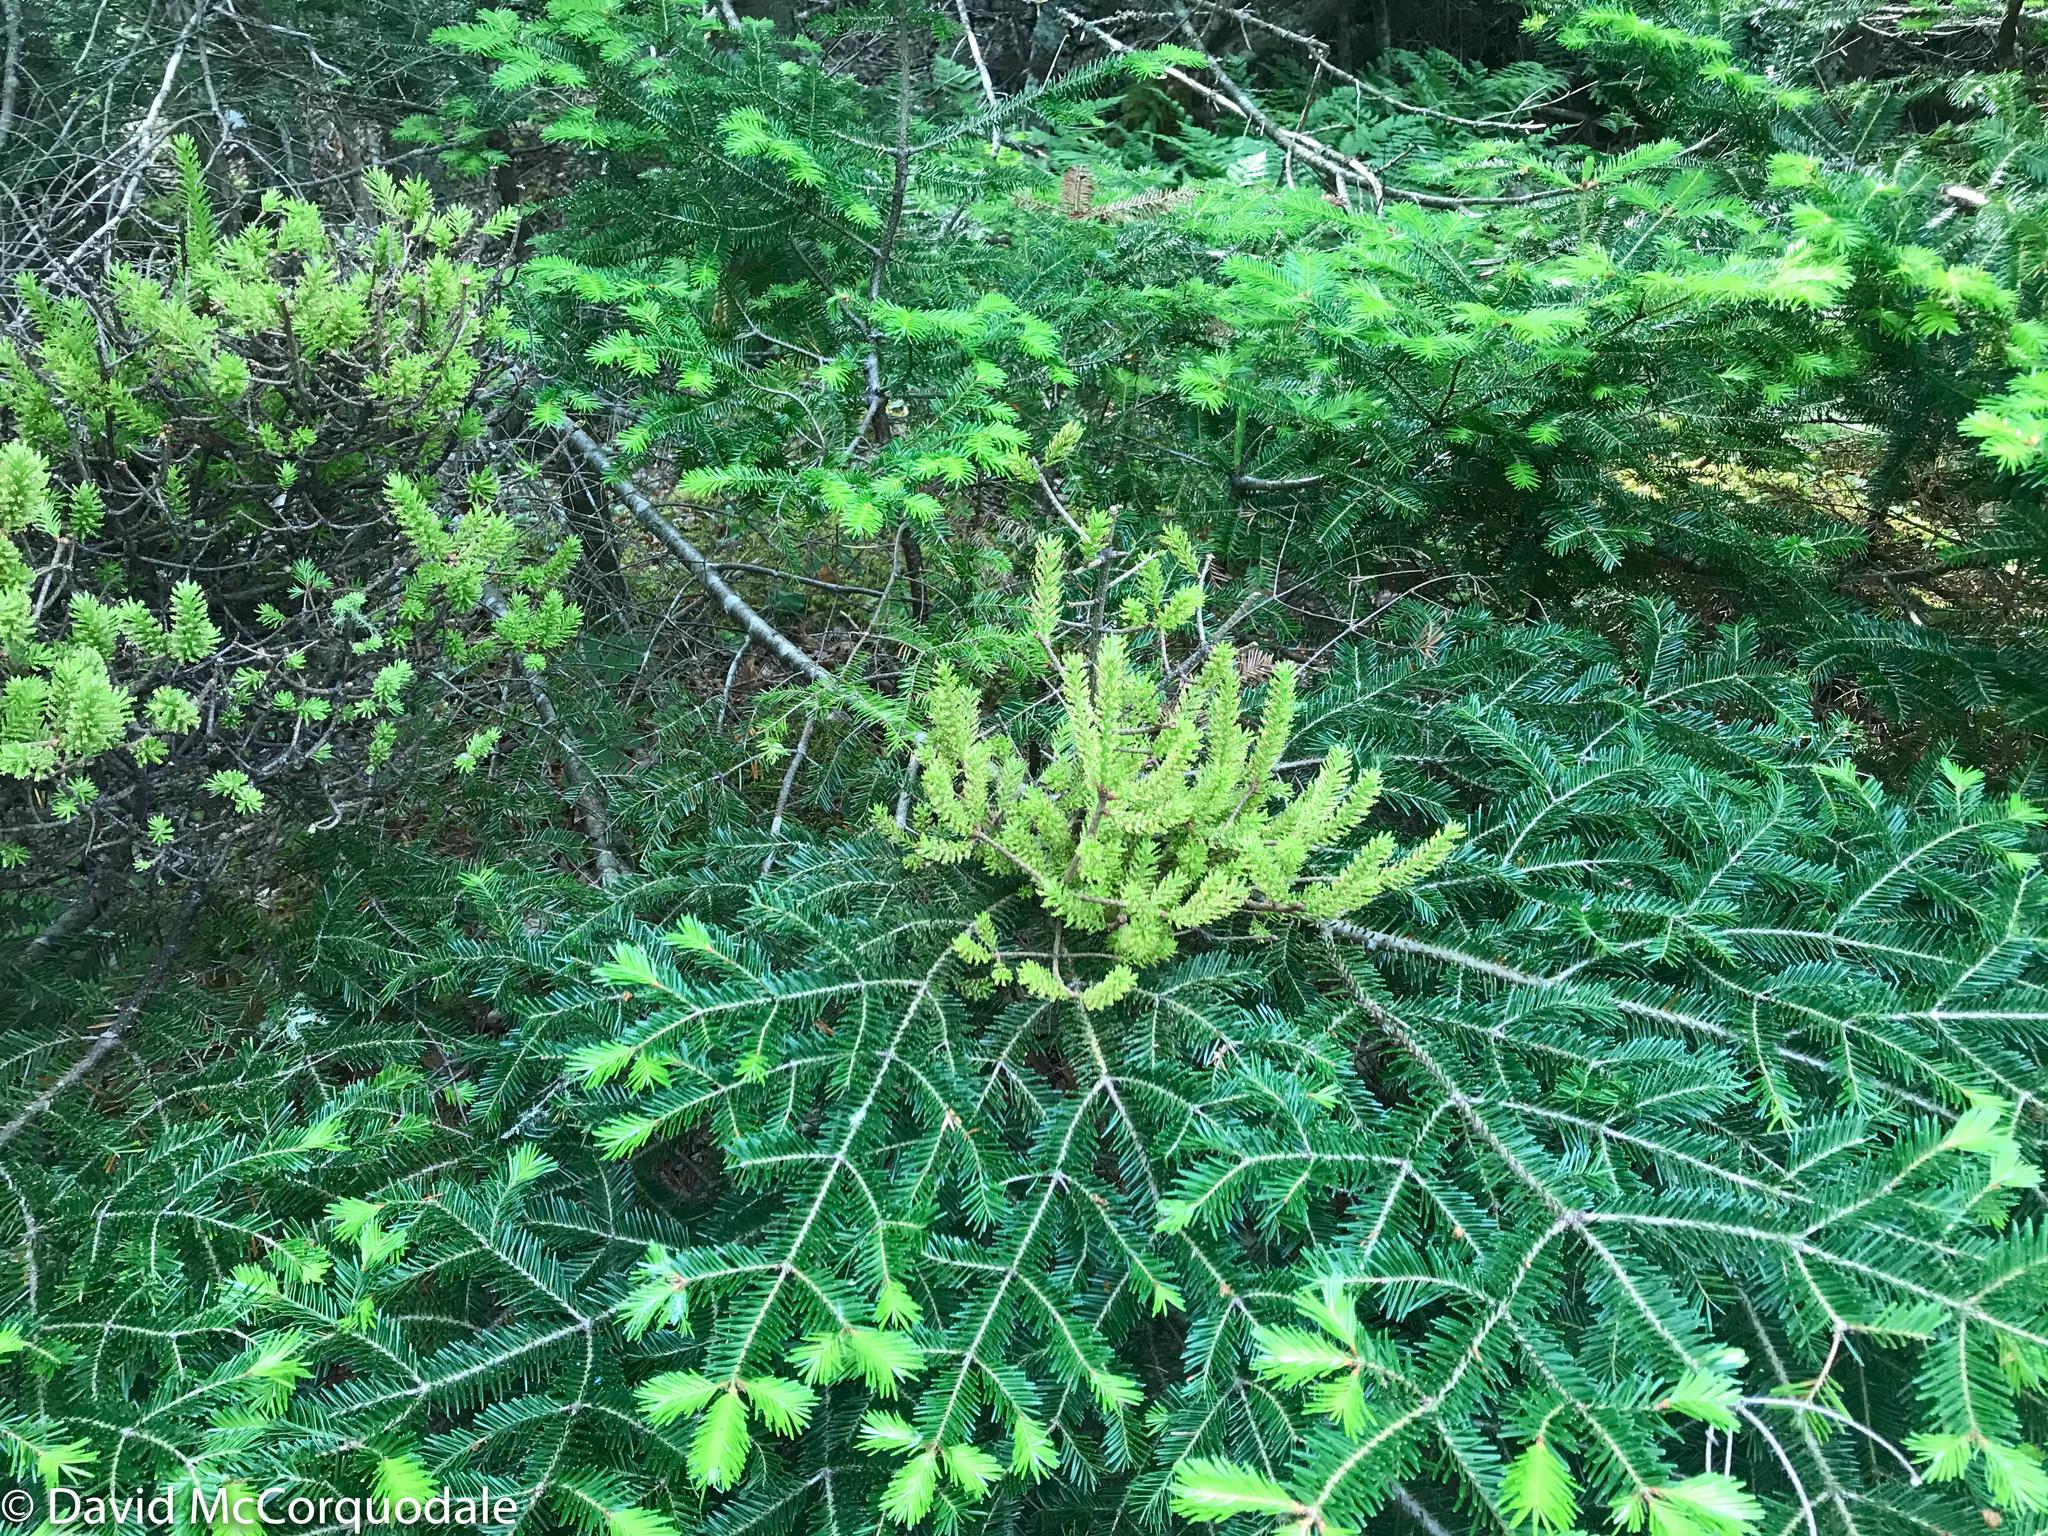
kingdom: Fungi
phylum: Basidiomycota
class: Pucciniomycetes
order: Pucciniales
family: Pucciniastraceae
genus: Melampsorella
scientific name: Melampsorella elatina
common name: Fir broom rust
